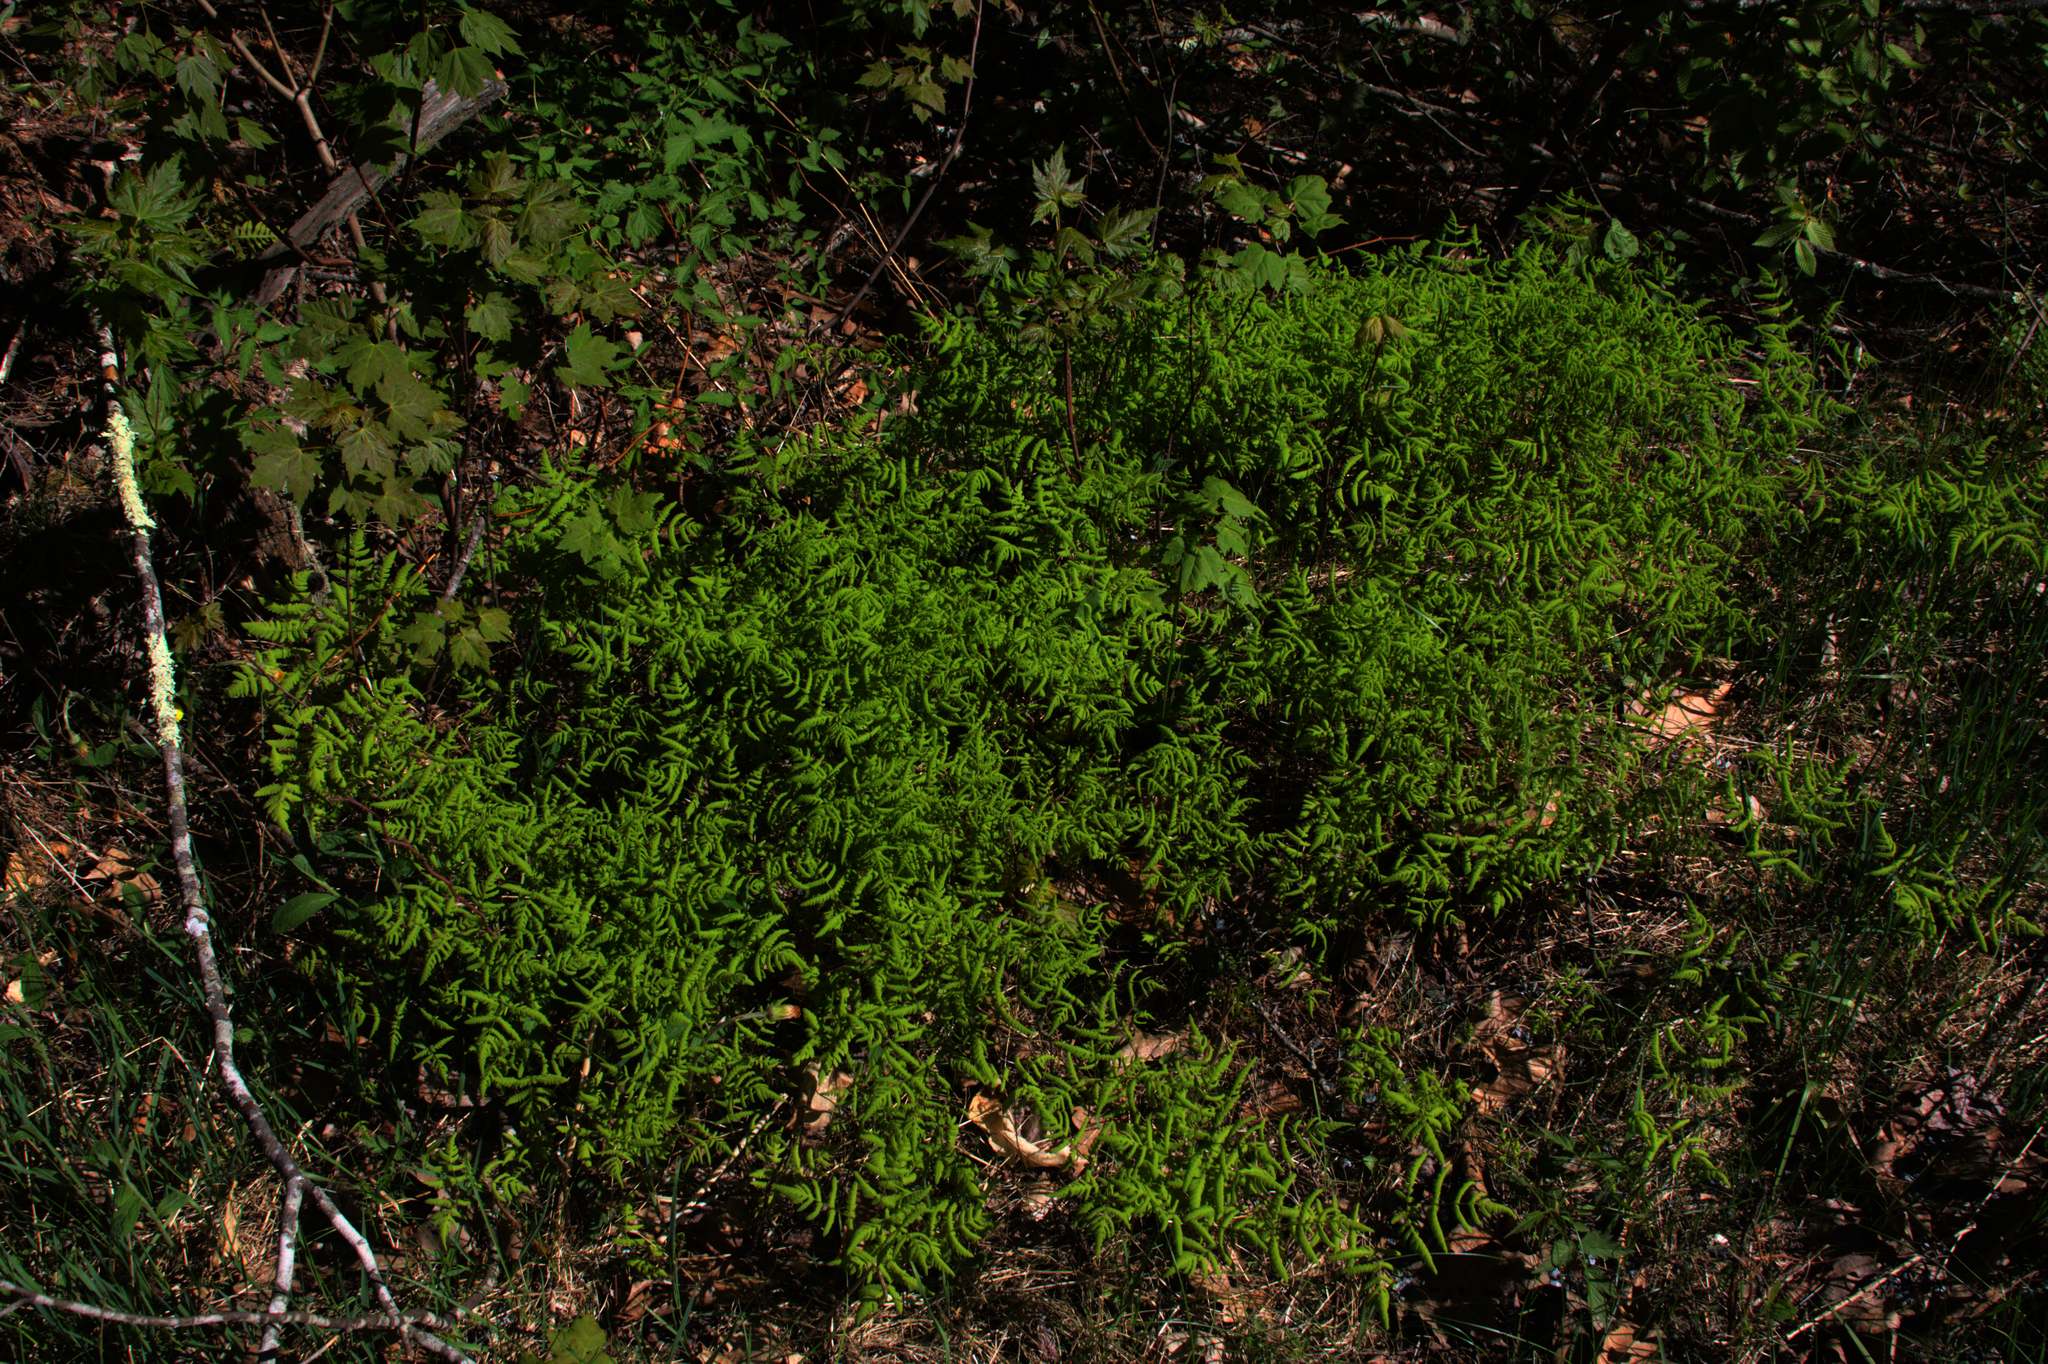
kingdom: Plantae
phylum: Tracheophyta
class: Polypodiopsida
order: Polypodiales
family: Cystopteridaceae
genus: Gymnocarpium
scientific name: Gymnocarpium dryopteris
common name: Oak fern
